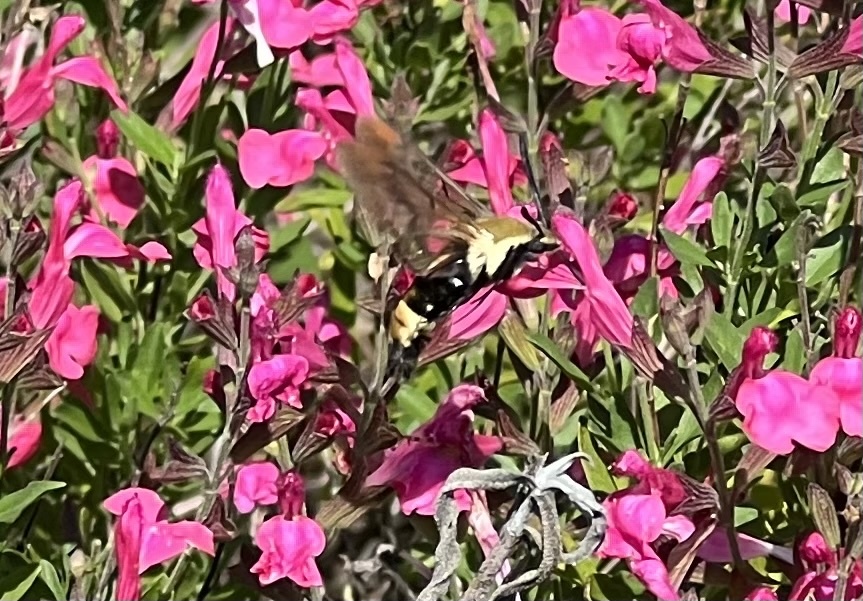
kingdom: Animalia
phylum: Arthropoda
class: Insecta
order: Lepidoptera
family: Sphingidae
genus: Hemaris
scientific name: Hemaris diffinis
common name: Bumblebee moth
